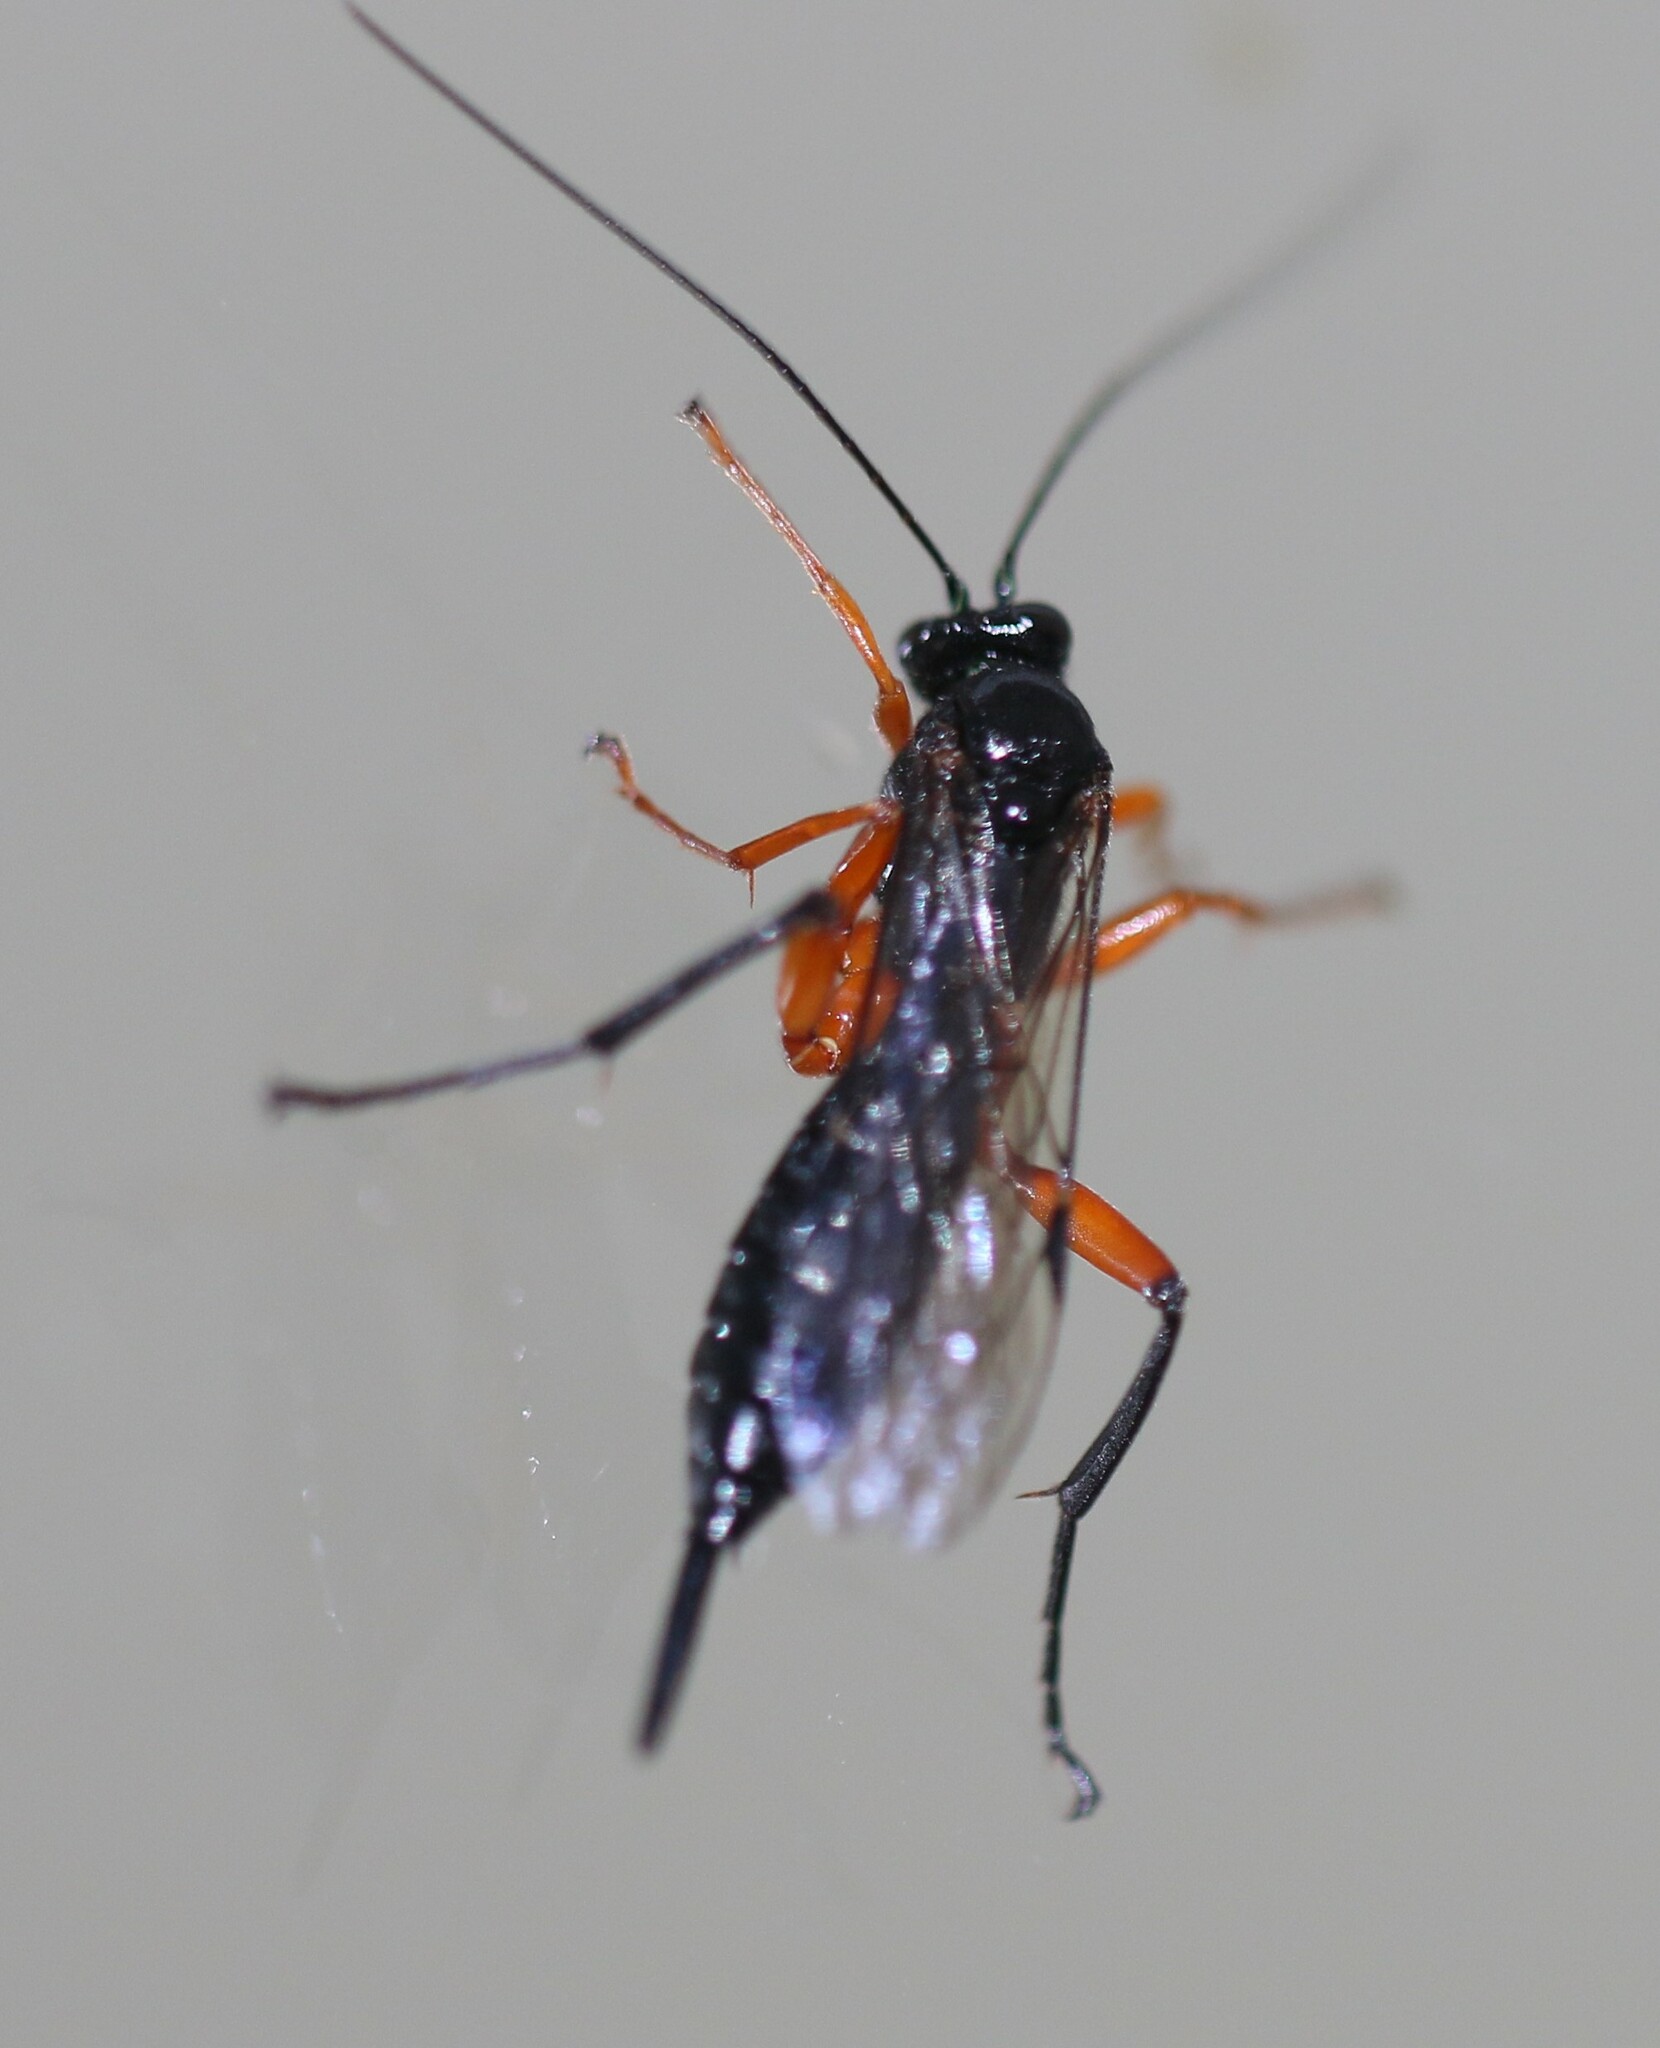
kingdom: Animalia
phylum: Arthropoda
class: Insecta
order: Hymenoptera
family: Ichneumonidae
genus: Pimpla
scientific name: Pimpla pedalis
